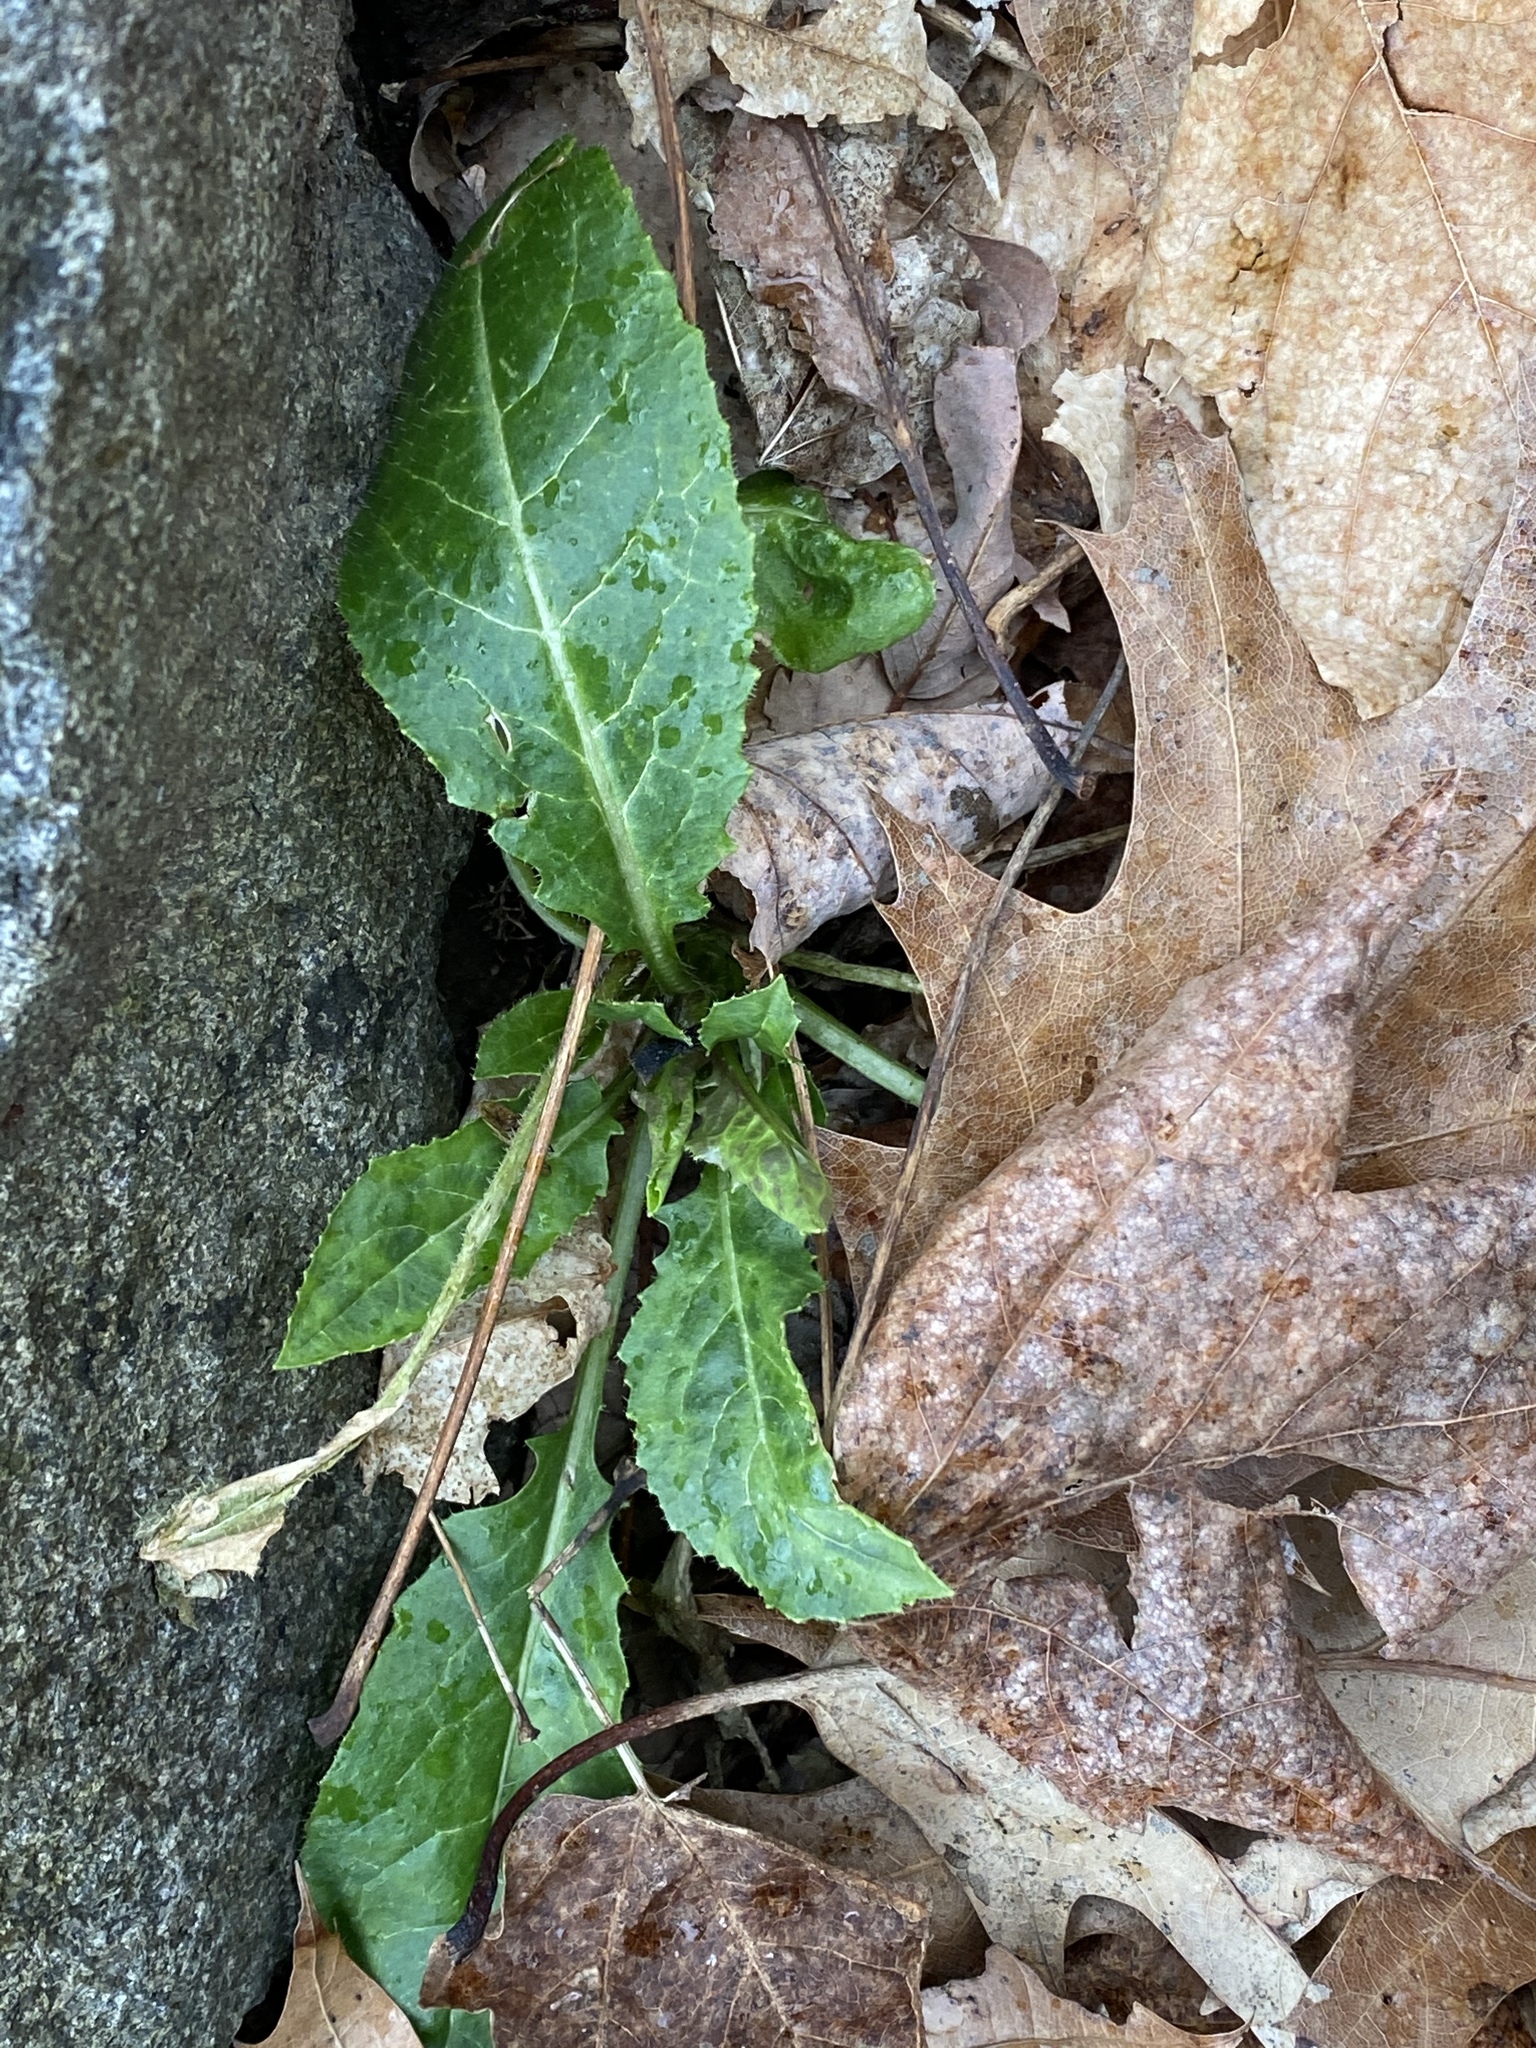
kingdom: Plantae
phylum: Tracheophyta
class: Magnoliopsida
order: Brassicales
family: Brassicaceae
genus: Hesperis
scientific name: Hesperis matronalis
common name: Dame's-violet
